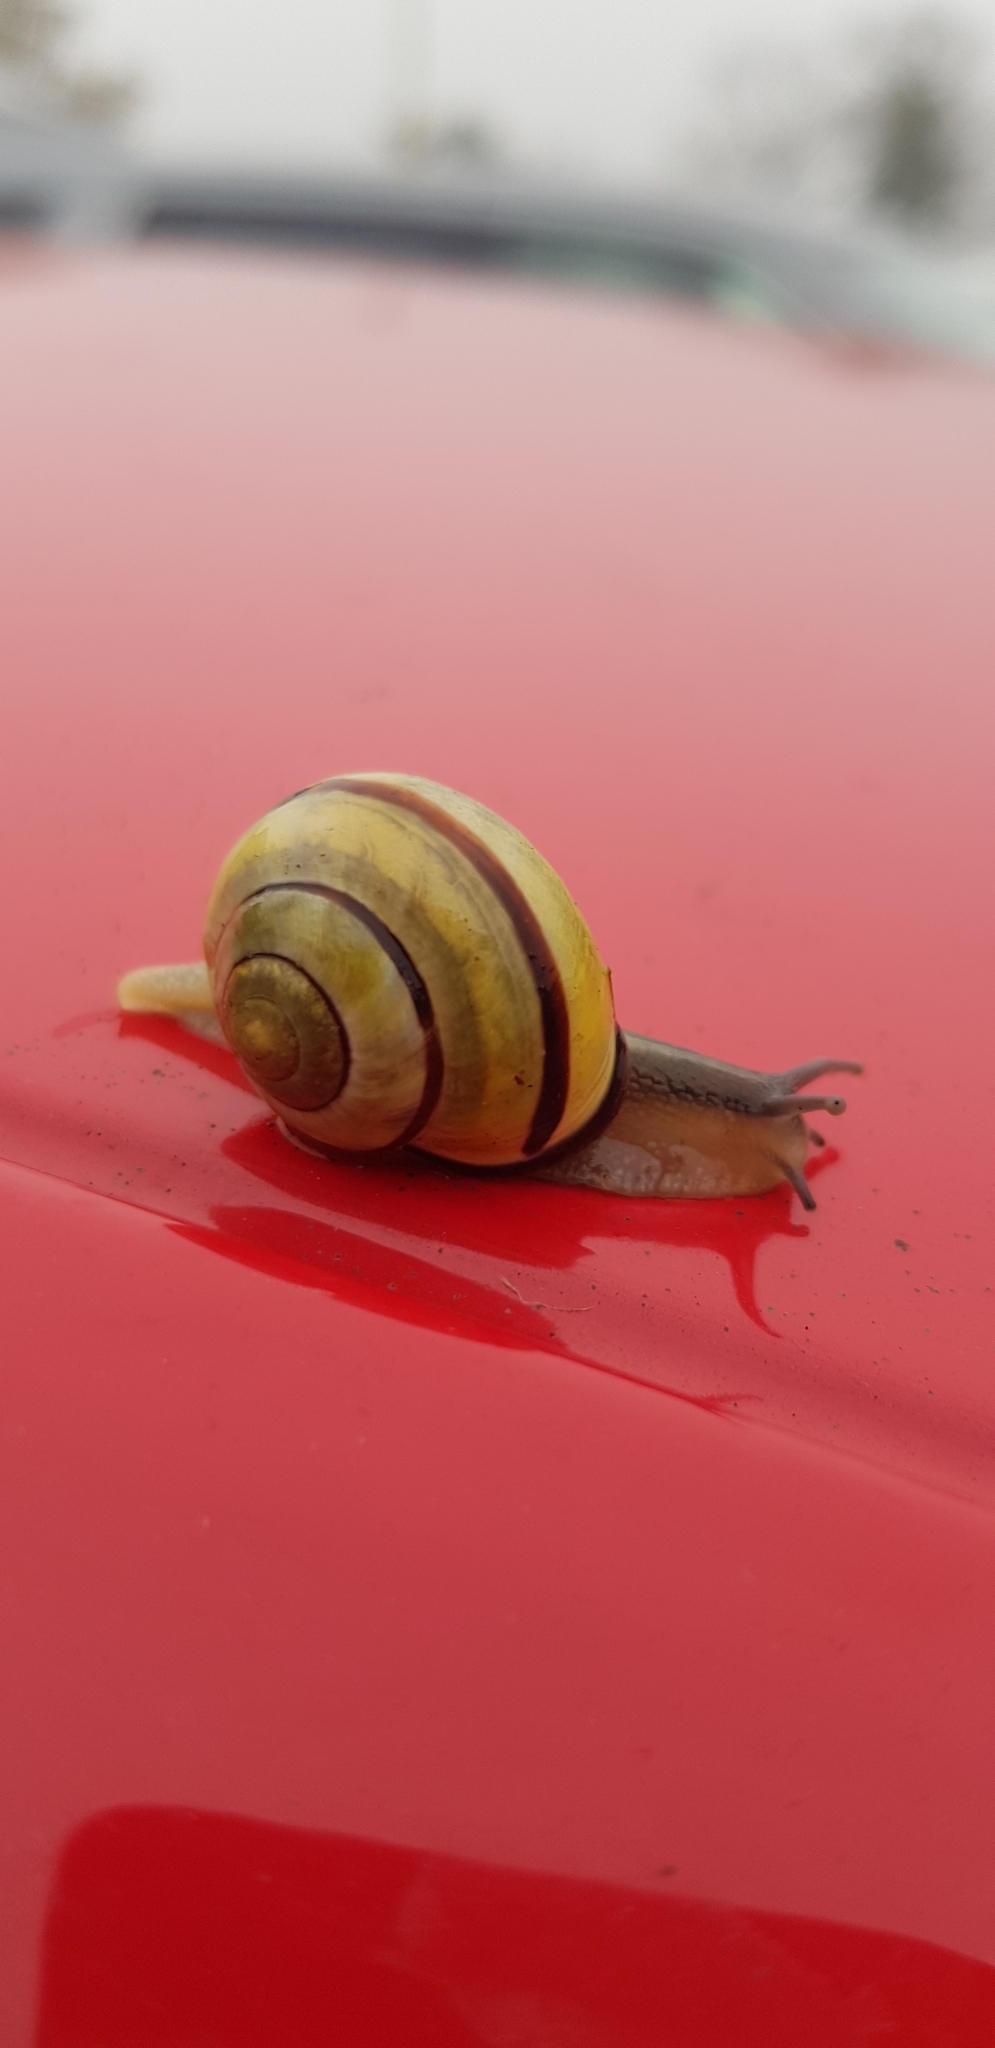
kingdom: Animalia
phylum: Mollusca
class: Gastropoda
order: Stylommatophora
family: Helicidae
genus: Cepaea
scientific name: Cepaea nemoralis
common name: Grovesnail
